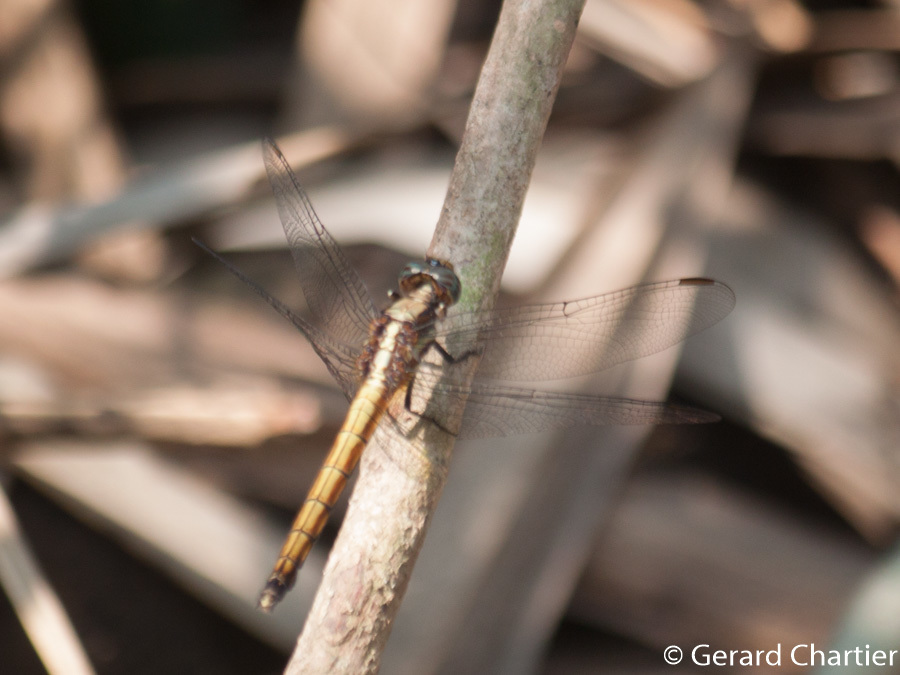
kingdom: Animalia
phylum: Arthropoda
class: Insecta
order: Odonata
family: Libellulidae
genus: Orthetrum
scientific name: Orthetrum glaucum
